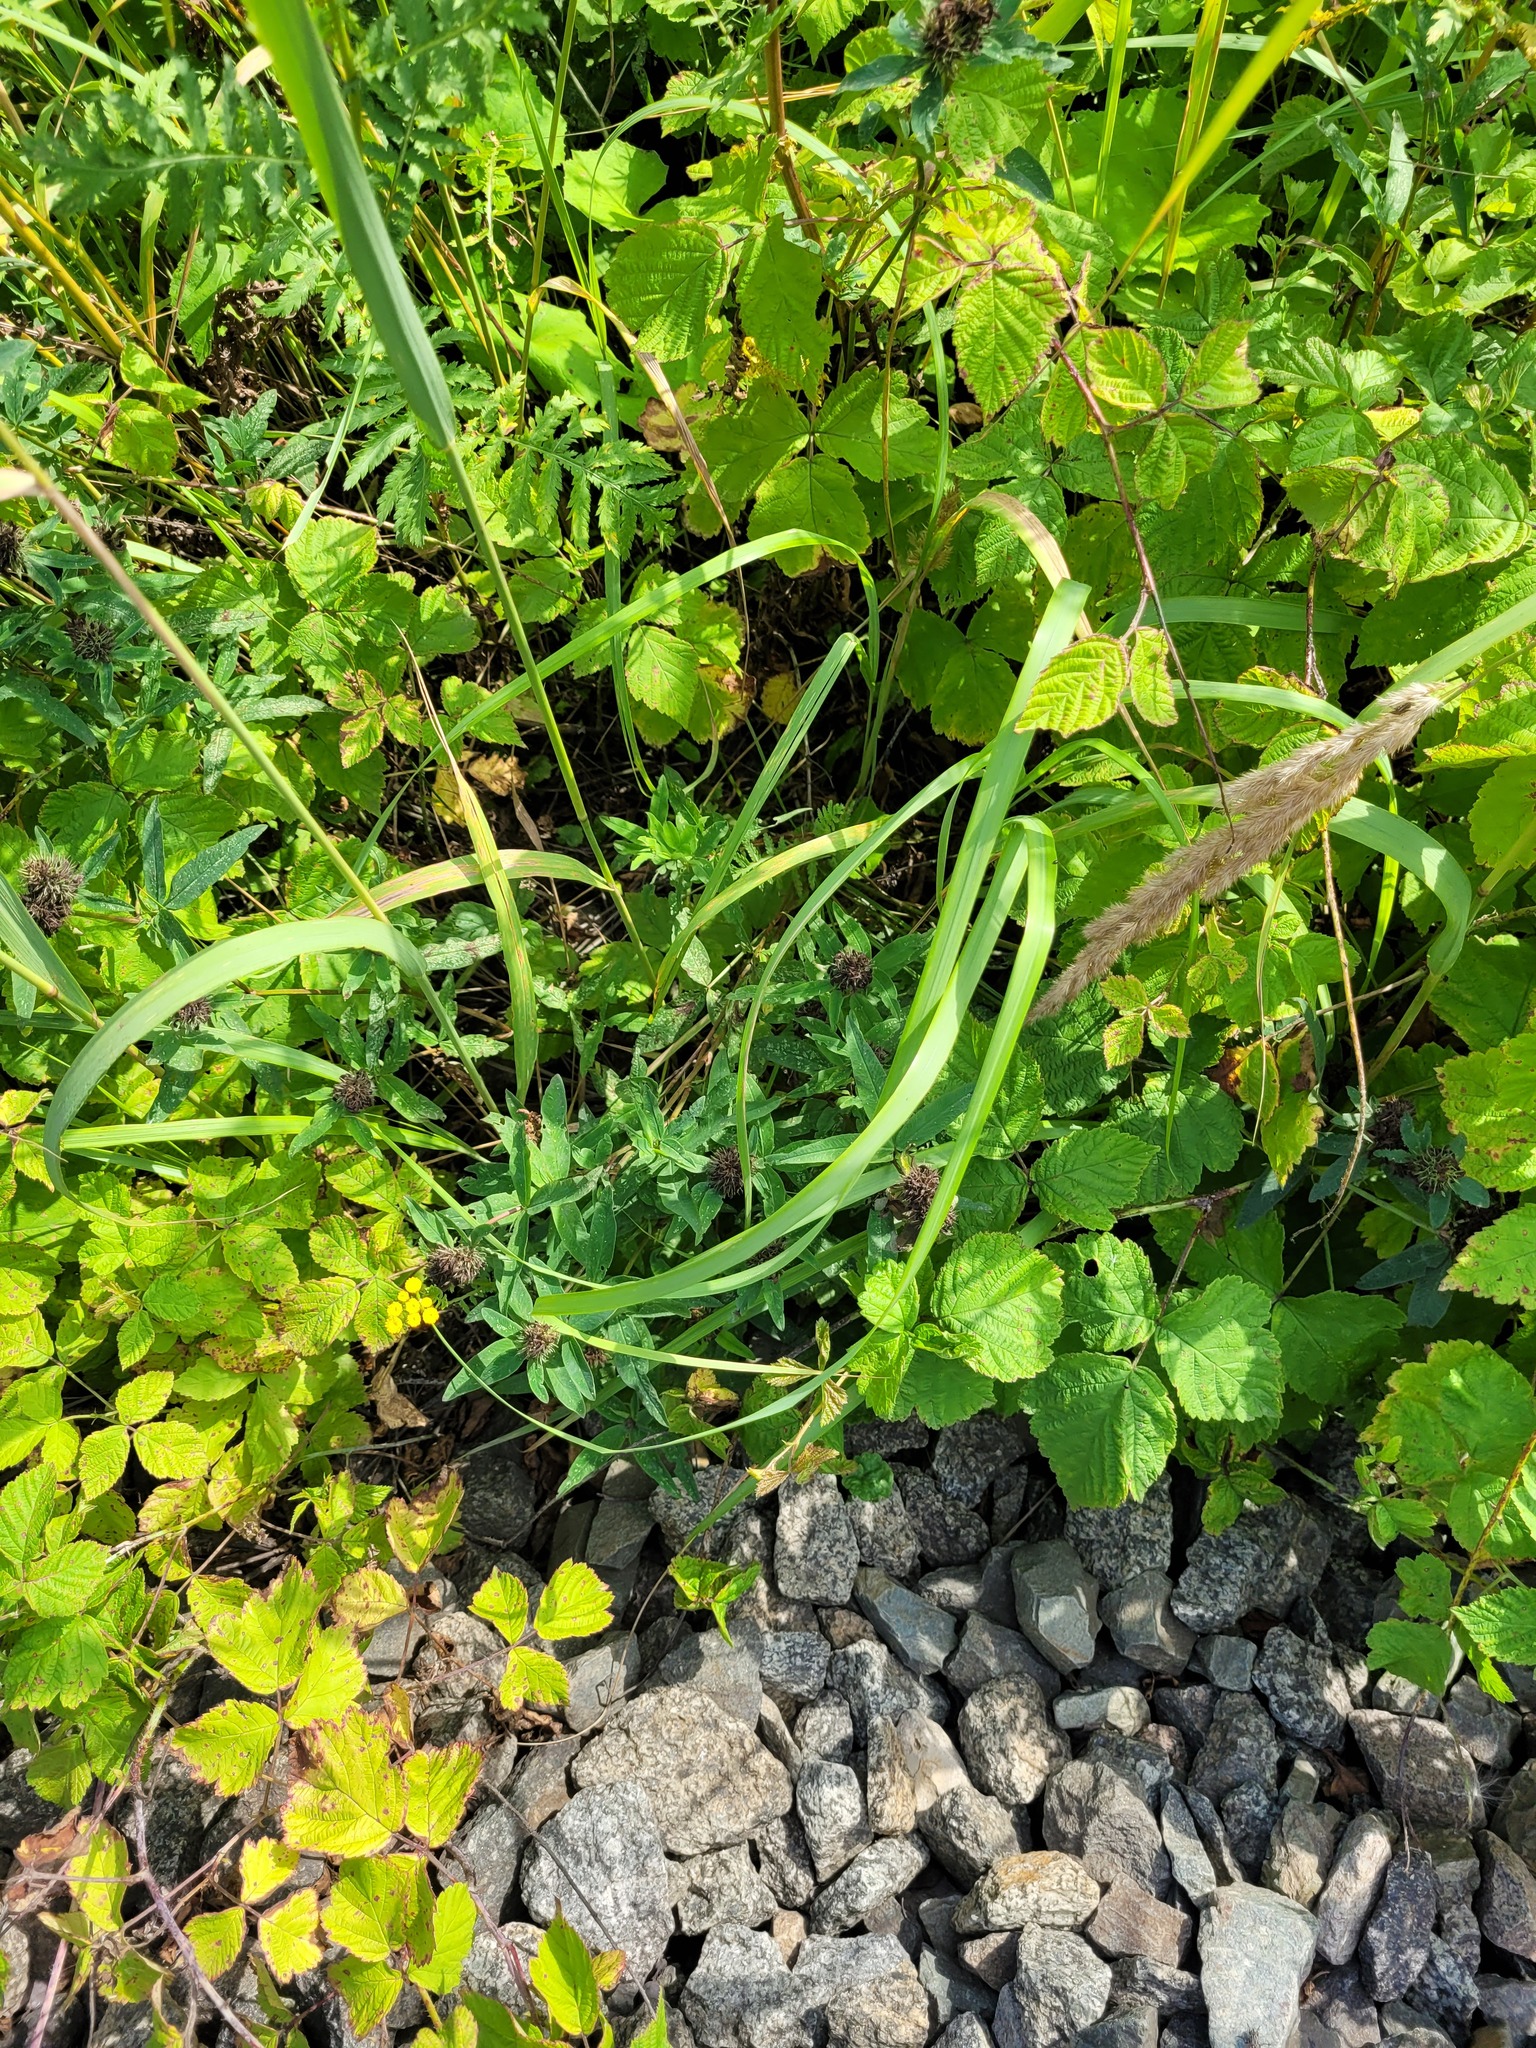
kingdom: Plantae
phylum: Tracheophyta
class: Magnoliopsida
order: Fabales
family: Fabaceae
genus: Trifolium
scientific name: Trifolium medium
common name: Zigzag clover
